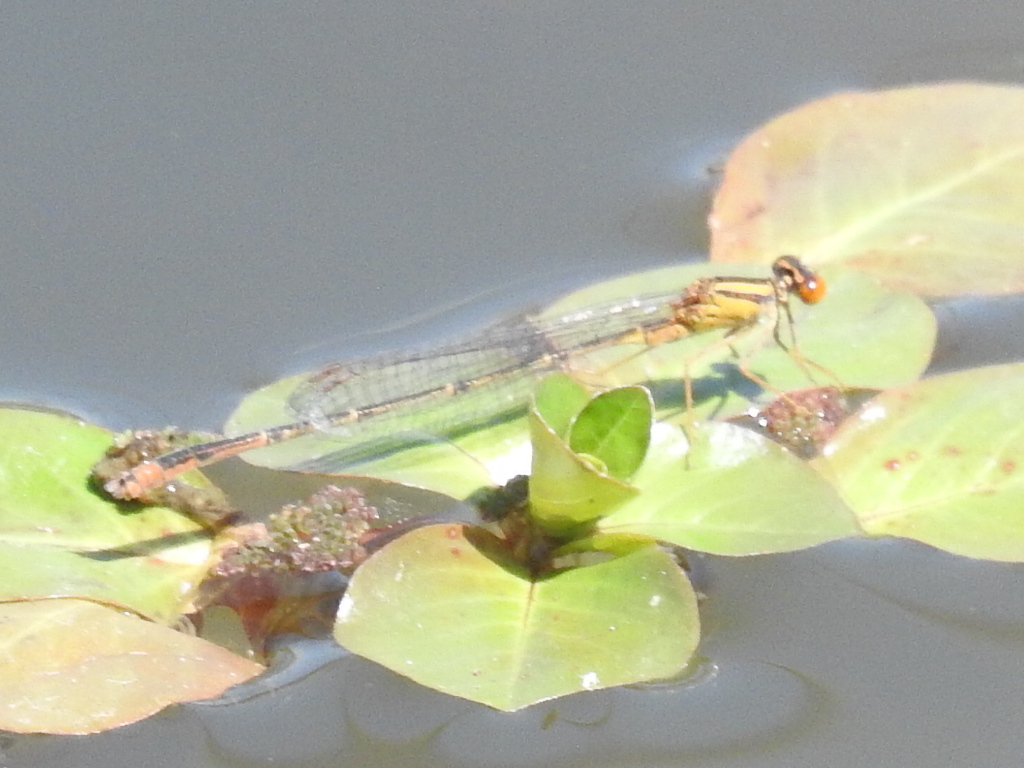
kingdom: Animalia
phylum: Arthropoda
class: Insecta
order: Odonata
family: Coenagrionidae
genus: Enallagma
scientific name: Enallagma signatum
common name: Orange bluet
